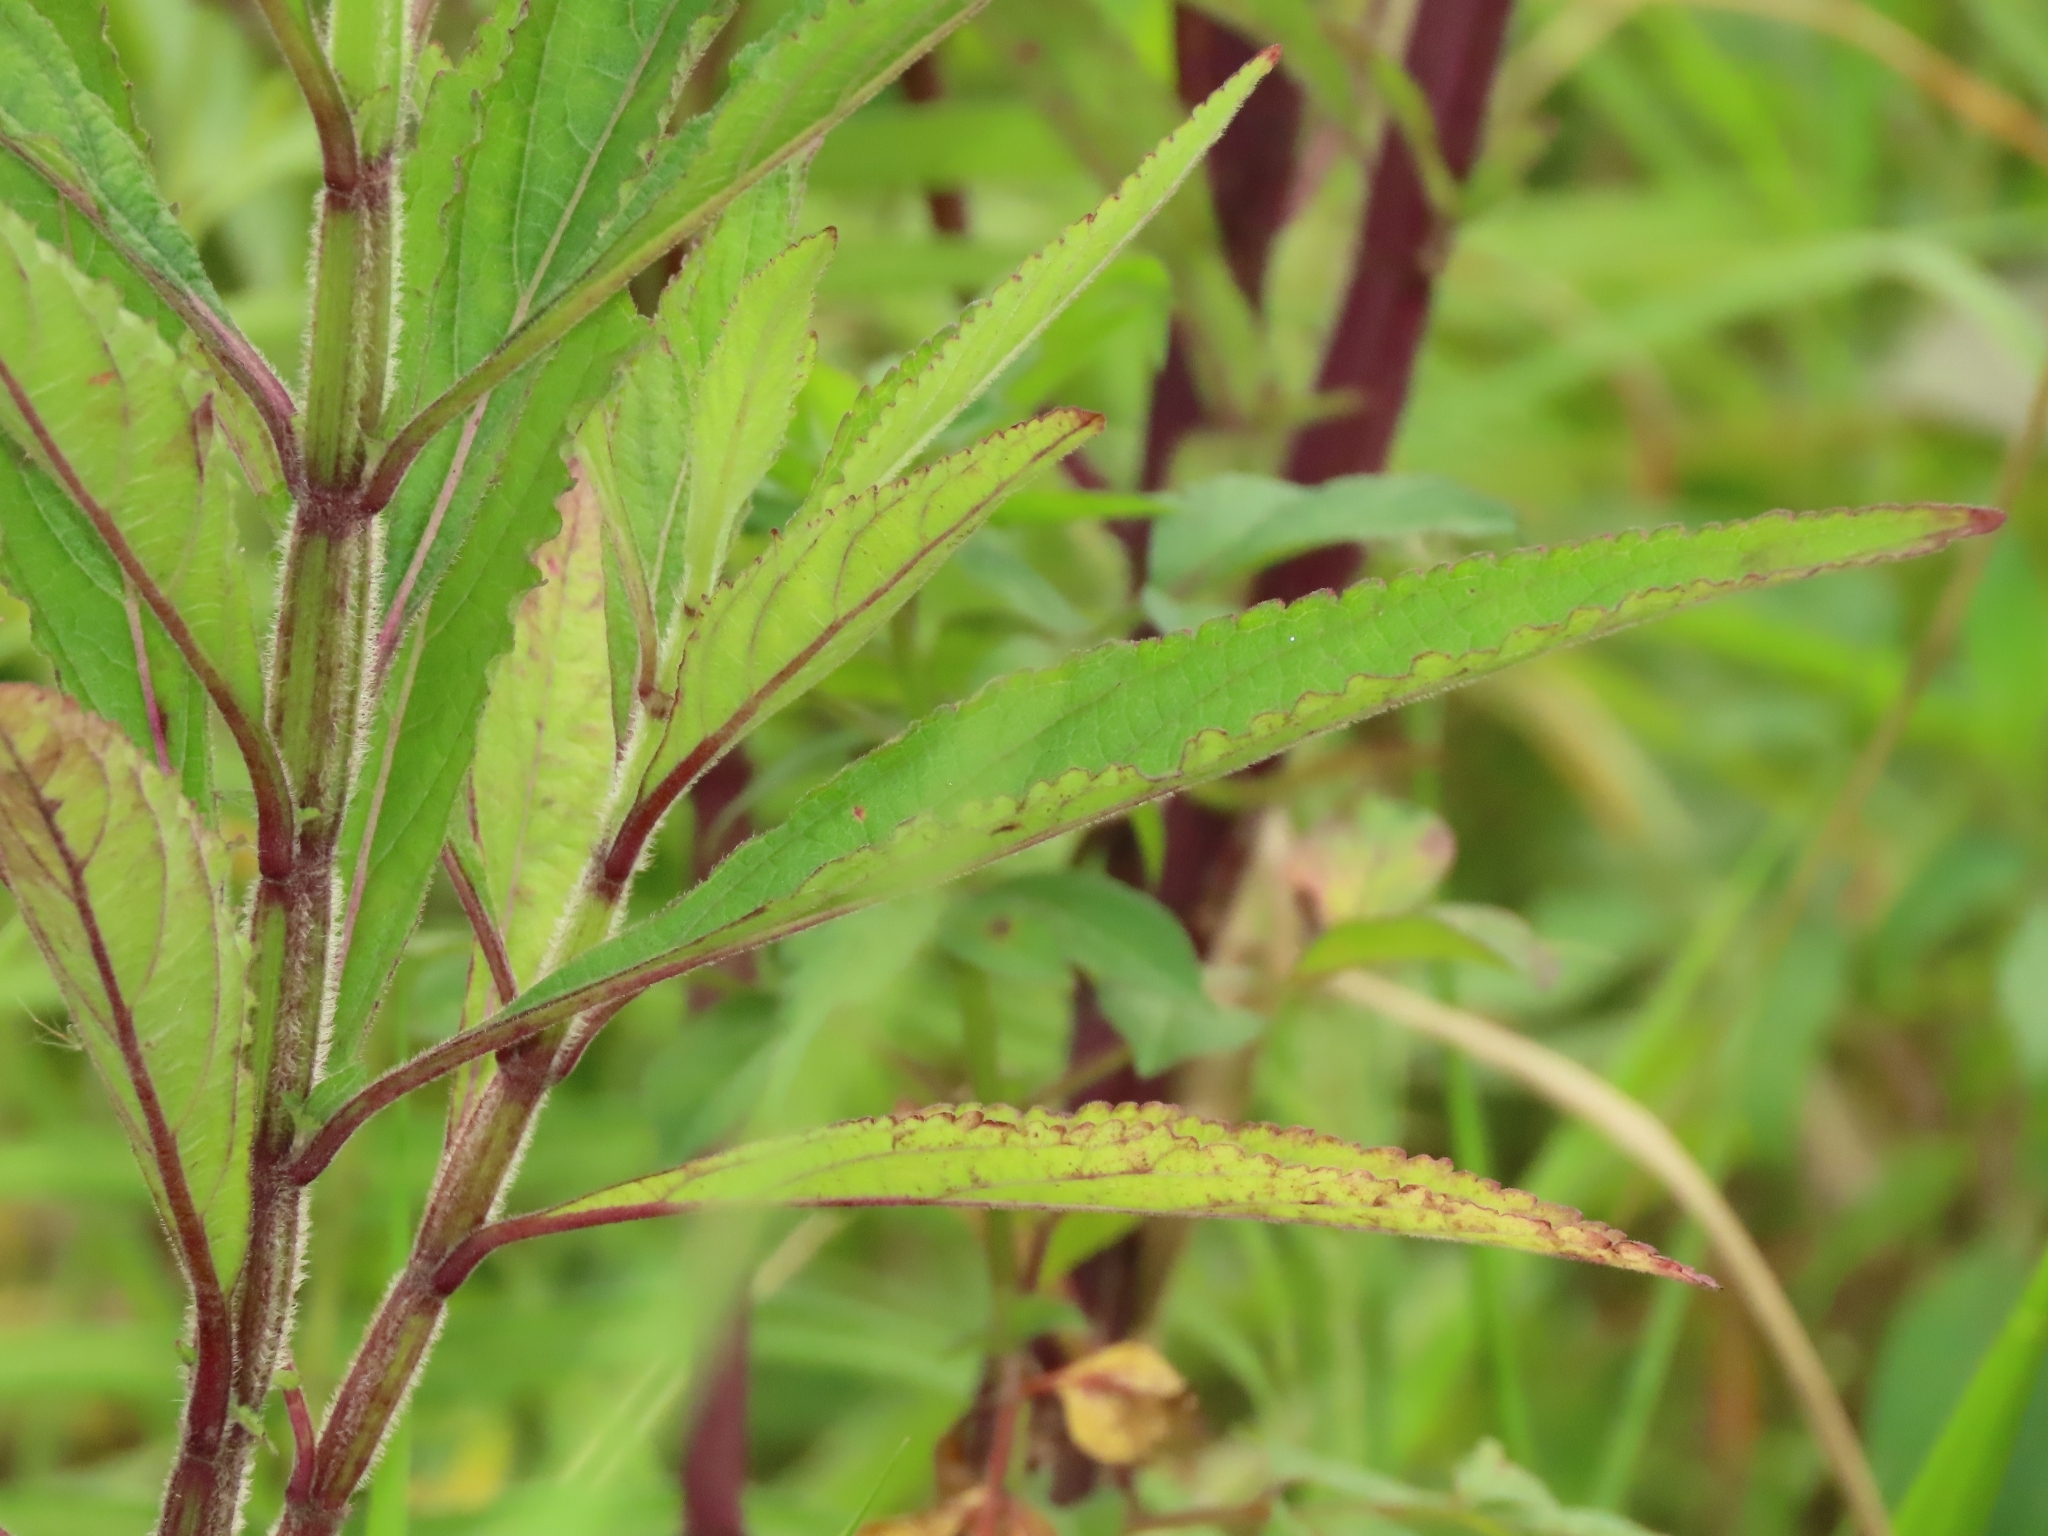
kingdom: Plantae
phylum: Tracheophyta
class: Magnoliopsida
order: Caryophyllales
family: Amaranthaceae
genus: Celosia
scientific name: Celosia argentea
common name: Feather cockscomb
